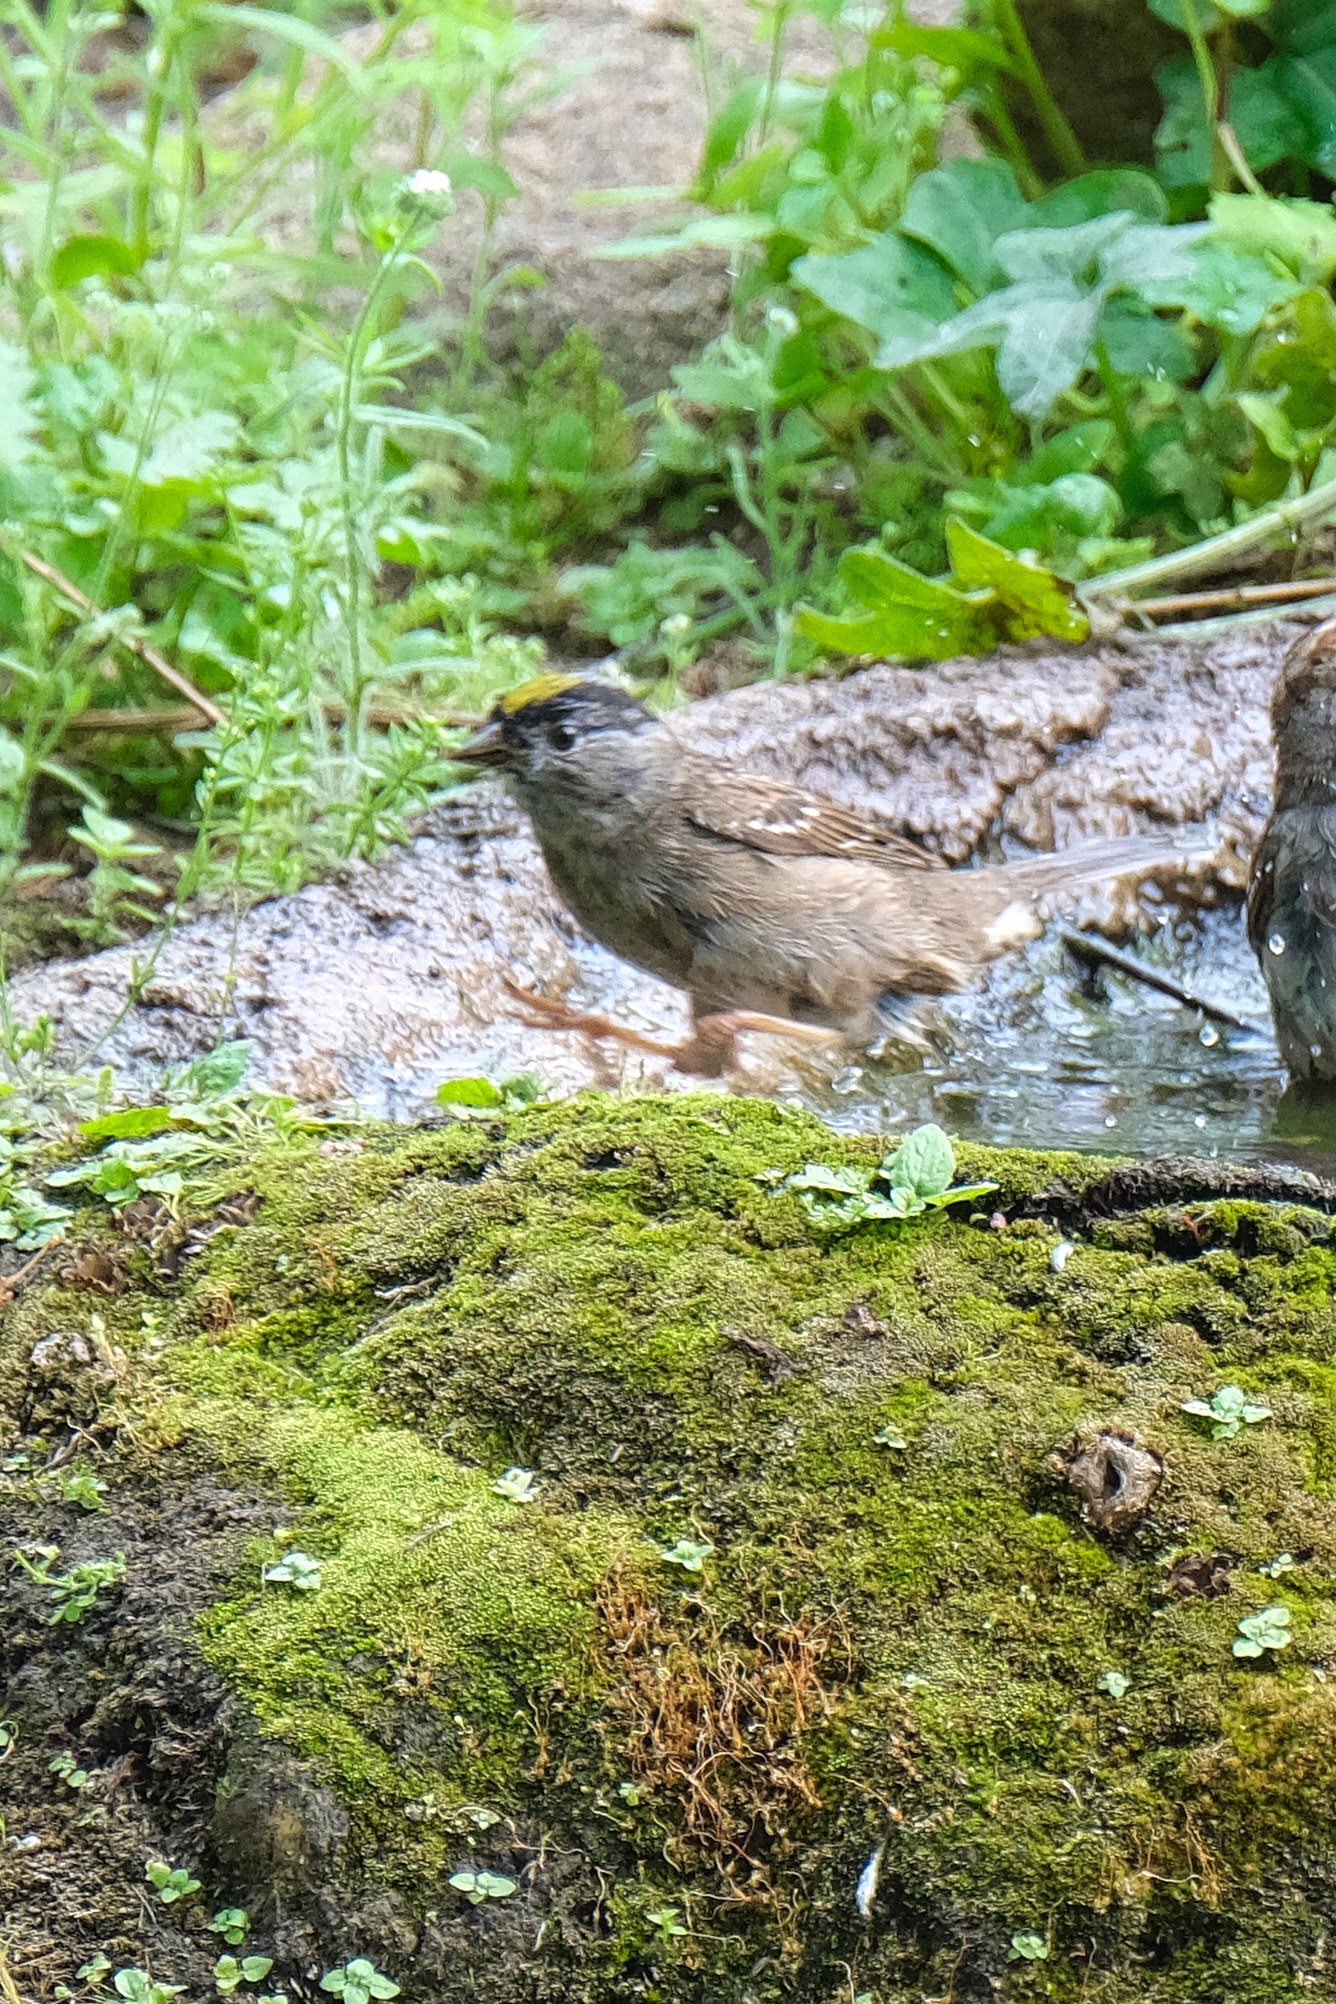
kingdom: Animalia
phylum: Chordata
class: Aves
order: Passeriformes
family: Passerellidae
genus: Zonotrichia
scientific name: Zonotrichia atricapilla
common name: Golden-crowned sparrow
